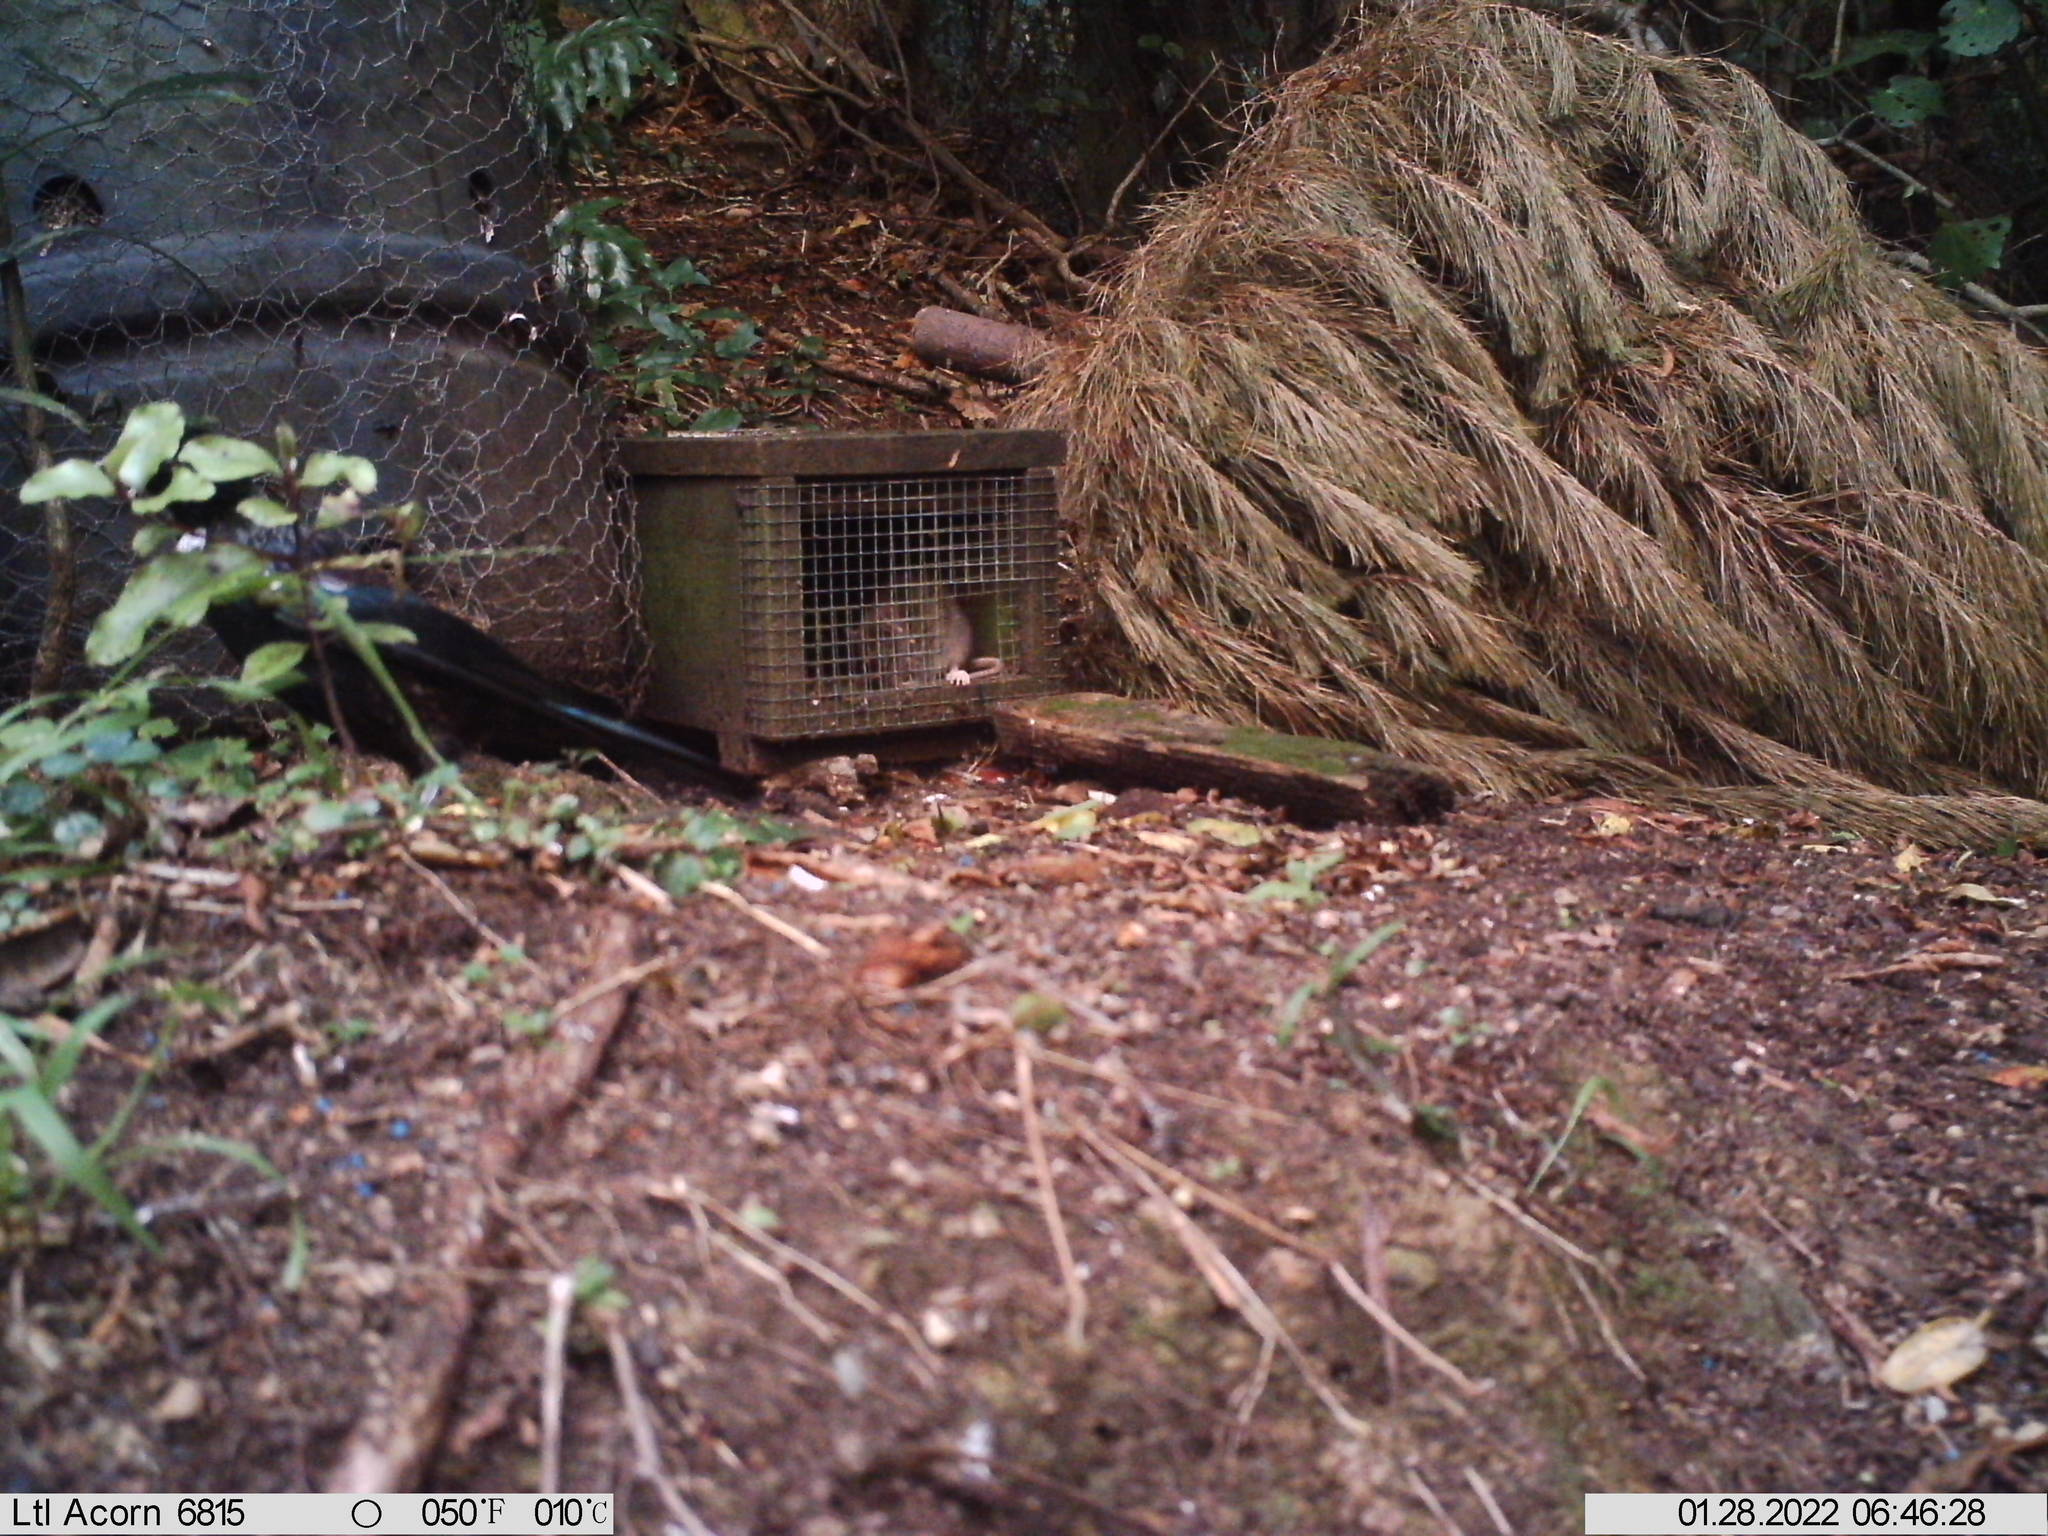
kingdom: Animalia
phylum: Chordata
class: Mammalia
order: Rodentia
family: Muridae
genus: Rattus
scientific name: Rattus norvegicus
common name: Brown rat
